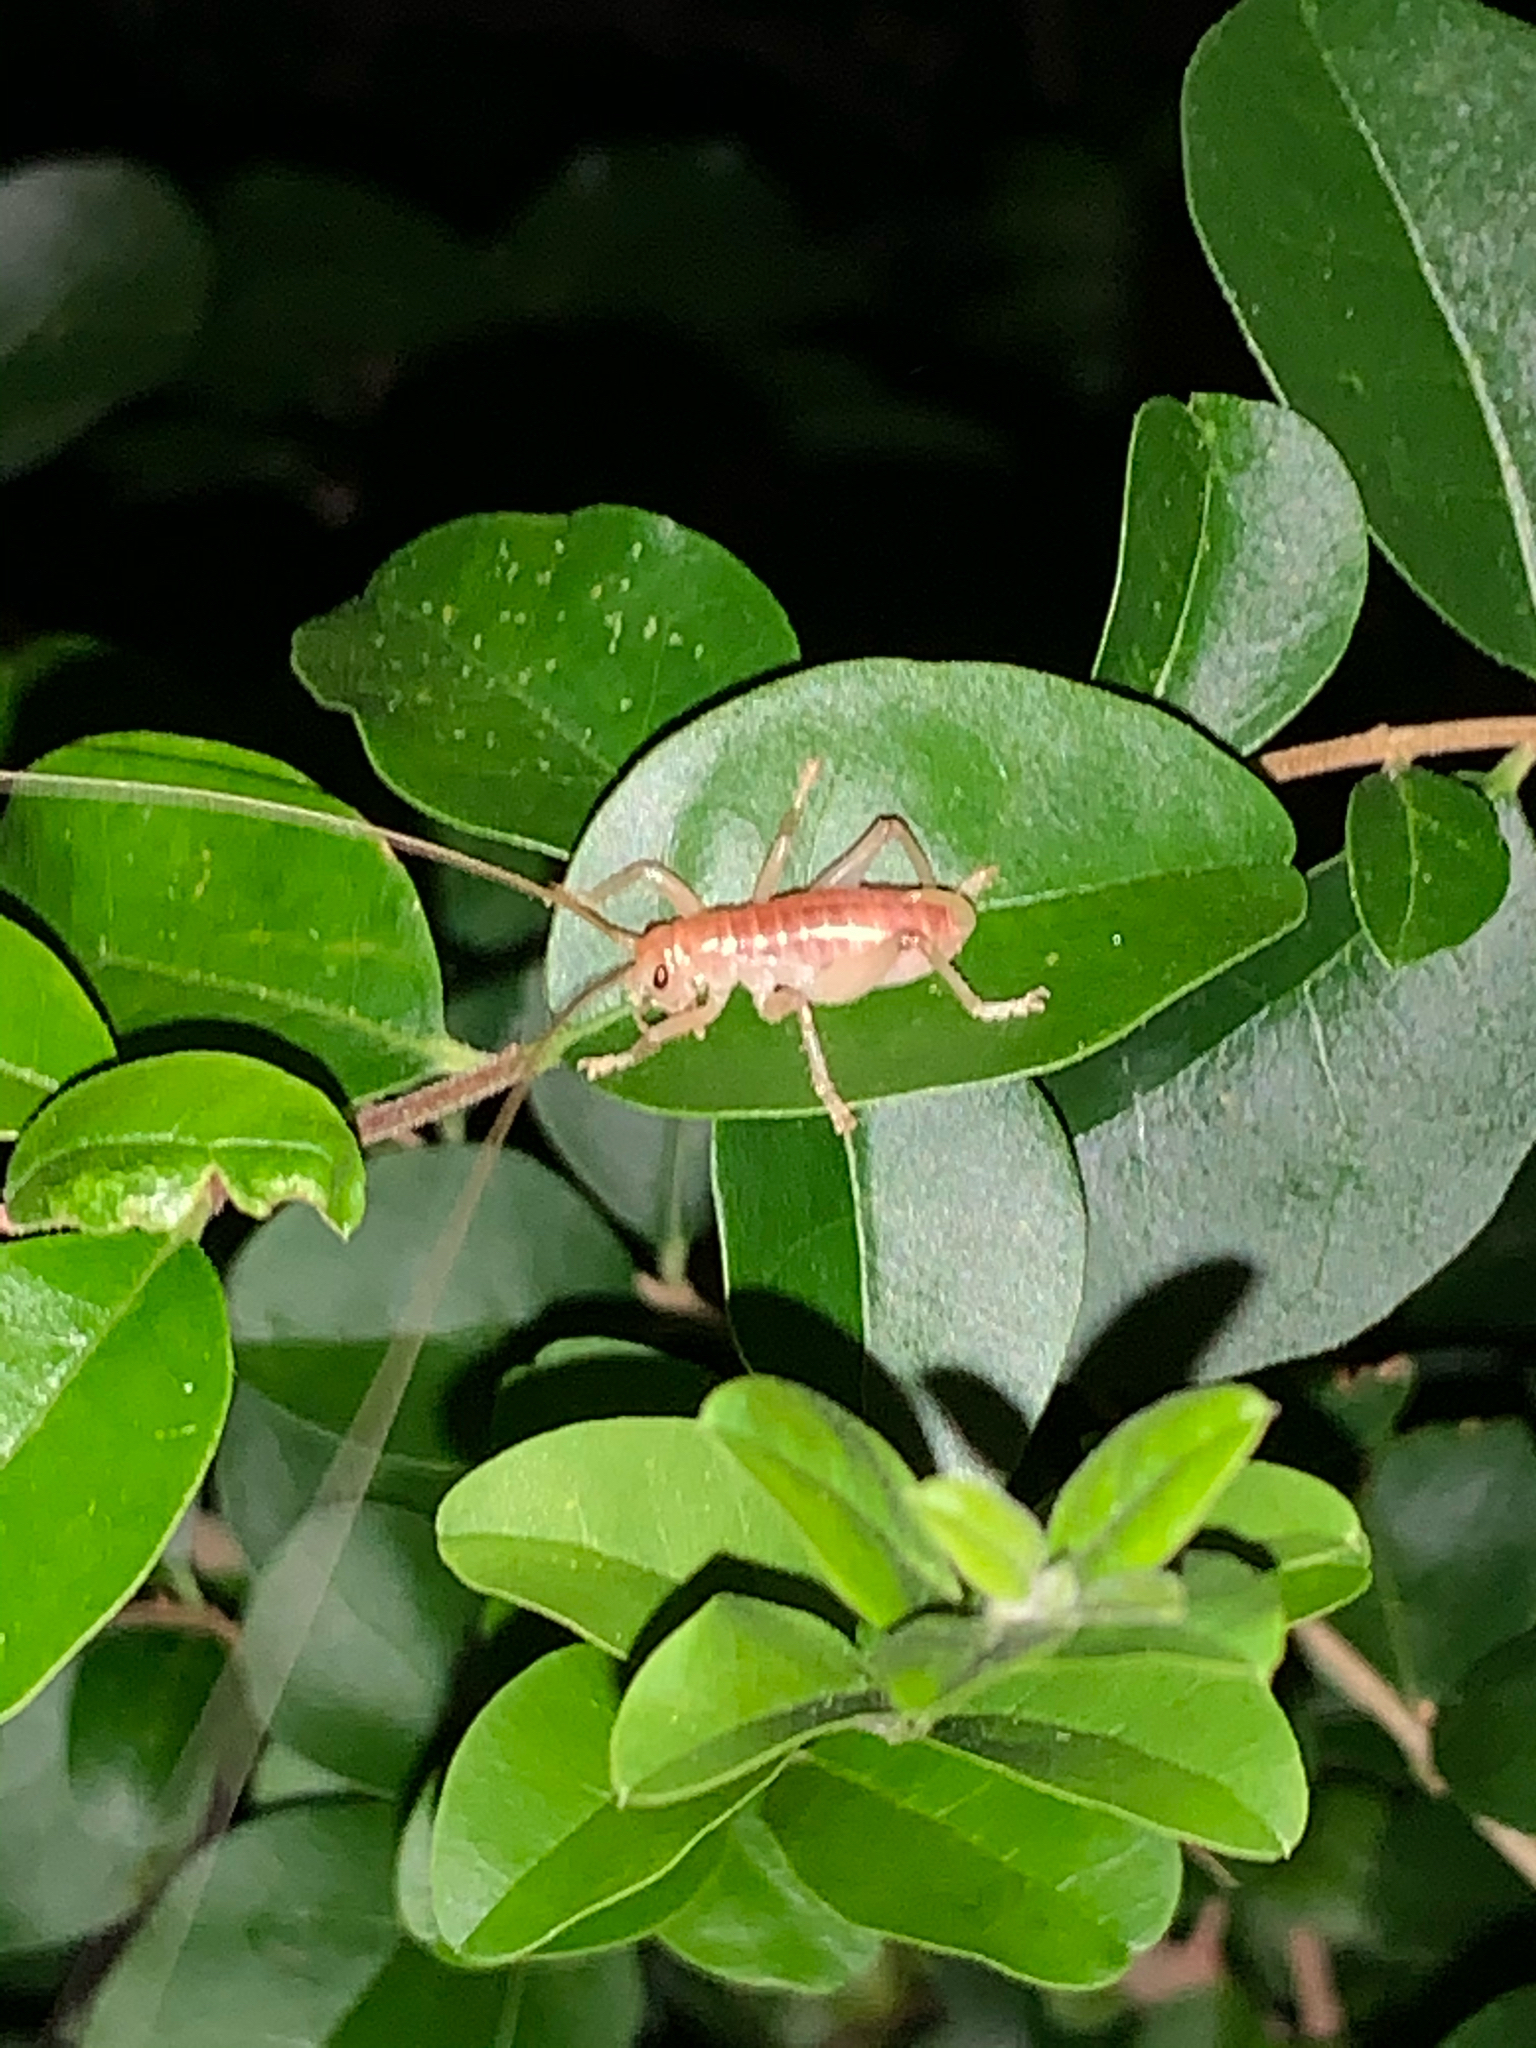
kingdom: Animalia
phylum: Arthropoda
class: Insecta
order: Orthoptera
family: Gryllacrididae
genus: Camptonotus
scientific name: Camptonotus carolinensis
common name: Carolina leaf-roller
